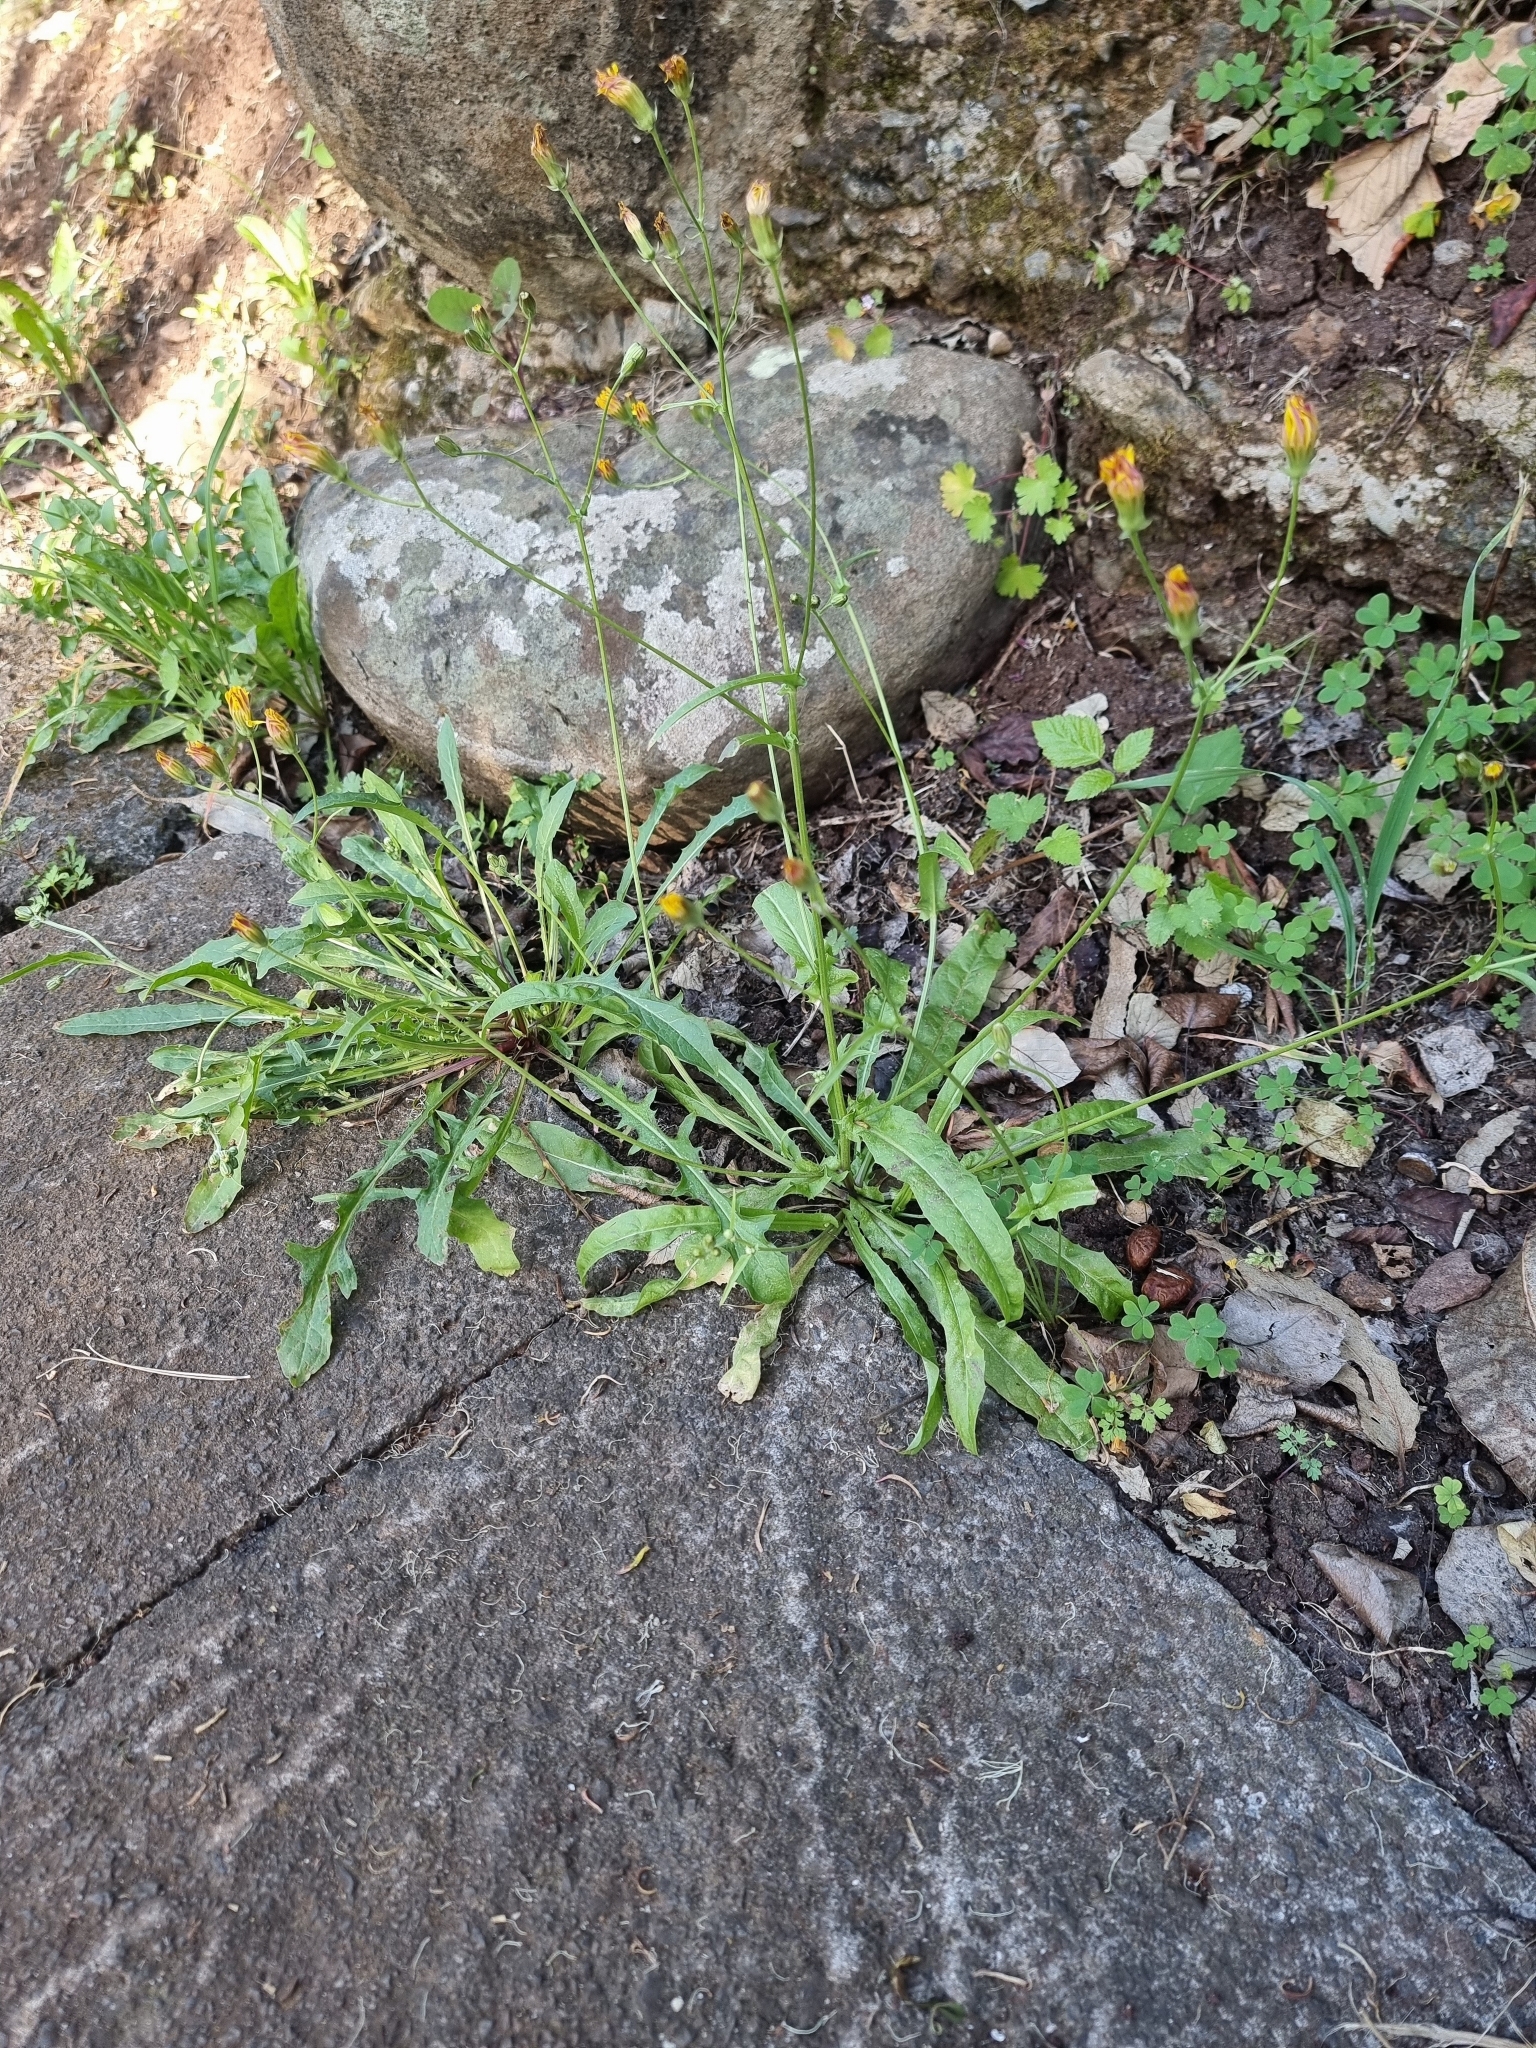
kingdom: Plantae
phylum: Tracheophyta
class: Magnoliopsida
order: Asterales
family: Asteraceae
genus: Crepis
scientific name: Crepis vesicaria
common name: Beaked hawksbeard
